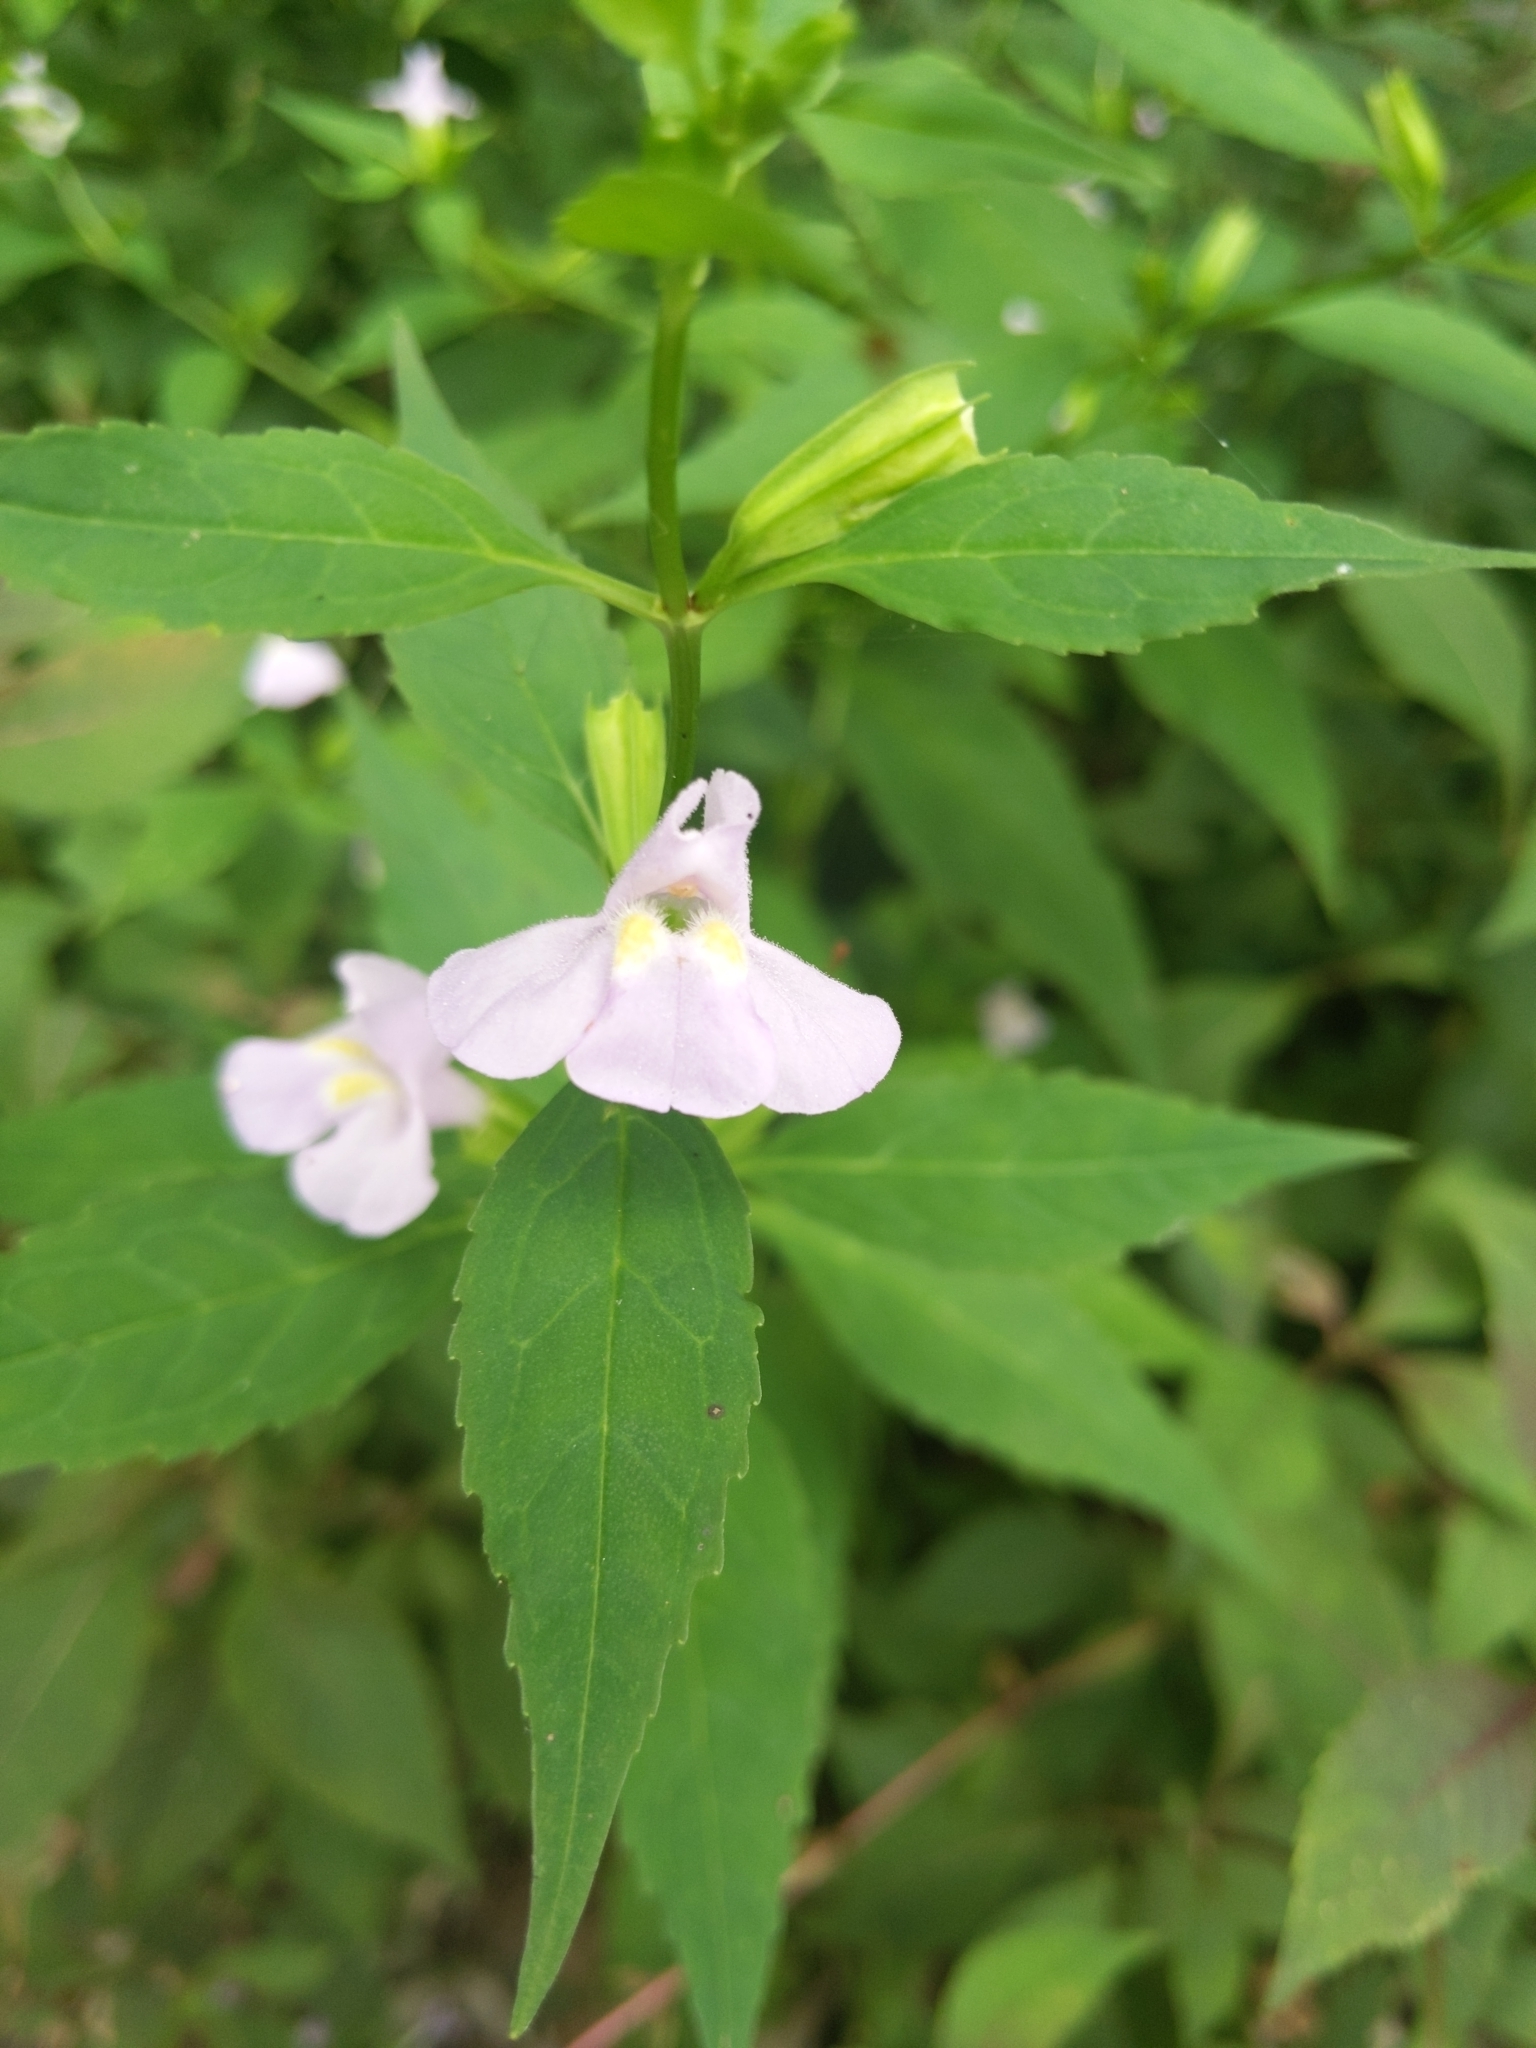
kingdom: Plantae
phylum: Tracheophyta
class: Magnoliopsida
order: Lamiales
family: Phrymaceae
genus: Mimulus
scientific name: Mimulus alatus
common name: Sharp-wing monkey-flower
